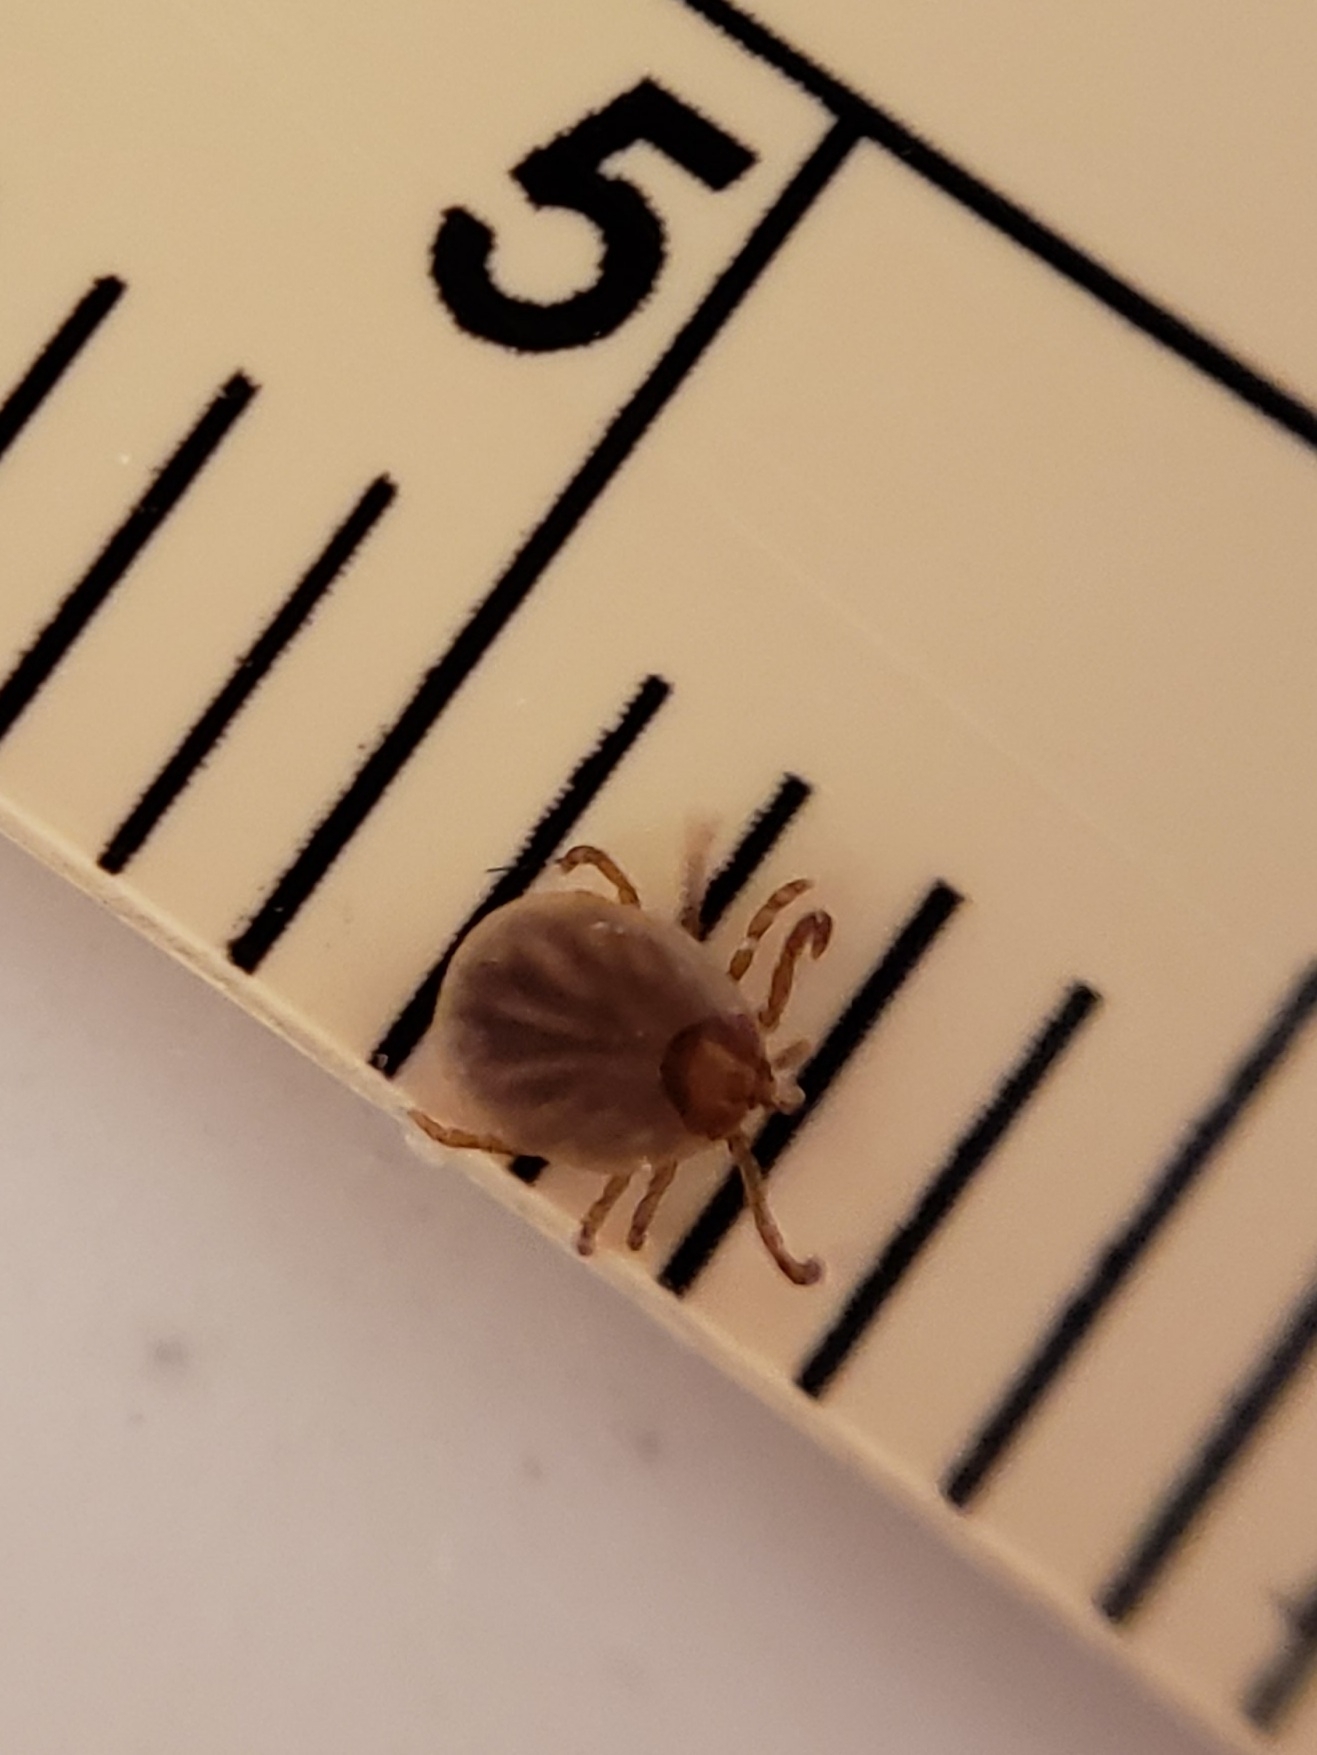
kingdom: Animalia
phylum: Arthropoda
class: Arachnida
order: Ixodida
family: Ixodidae
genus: Amblyomma
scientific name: Amblyomma americanum
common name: Lone star tick
